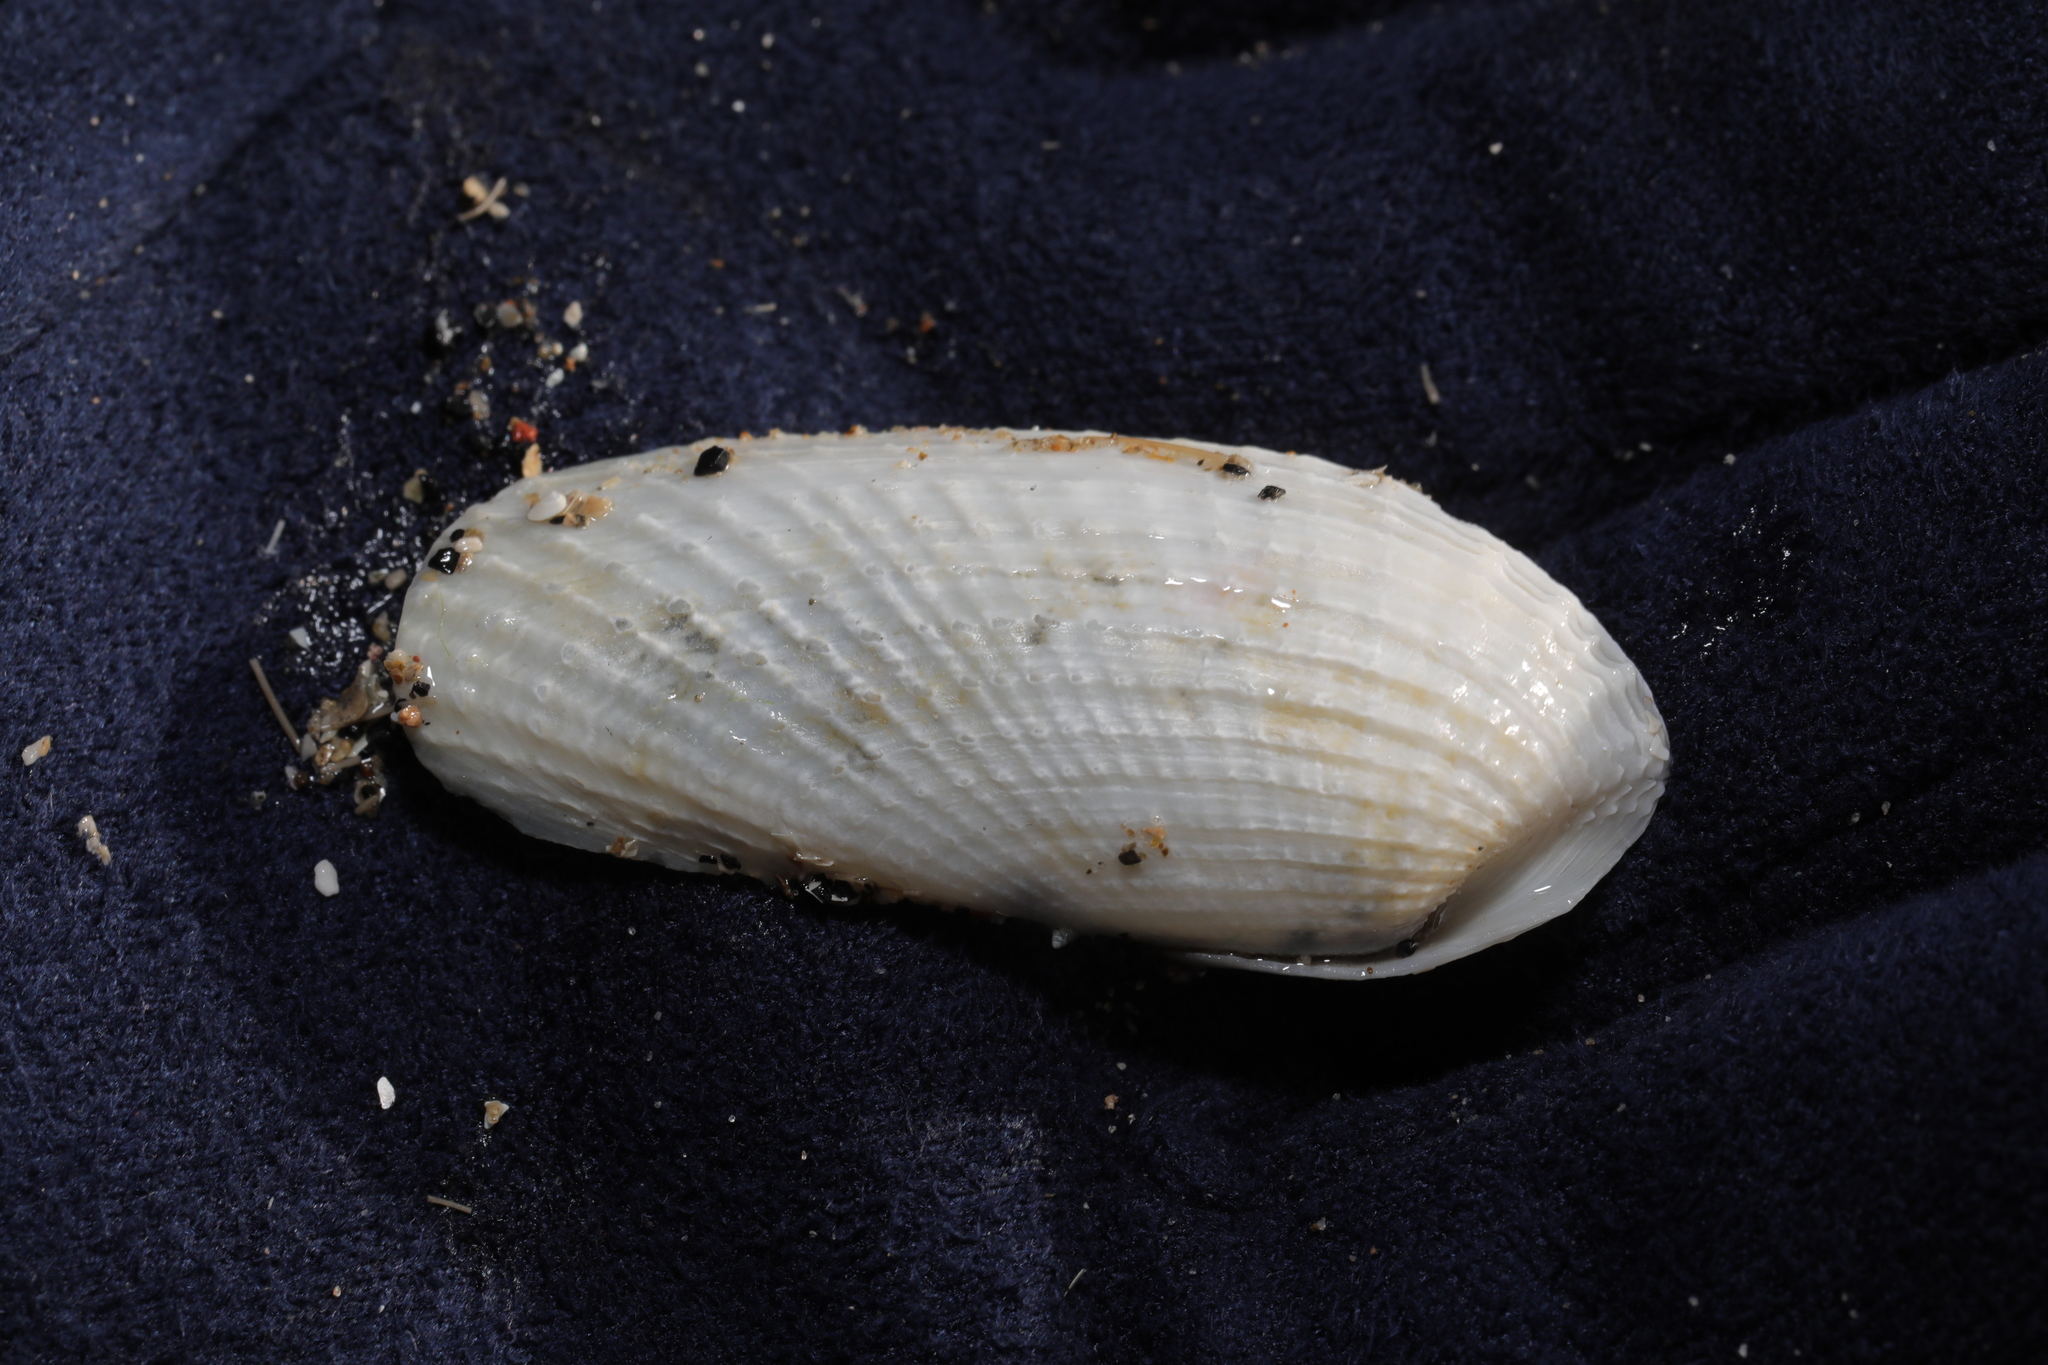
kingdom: Animalia
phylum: Mollusca
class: Bivalvia
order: Myida
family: Pholadidae
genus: Barnea
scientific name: Barnea candida
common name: White piddock
